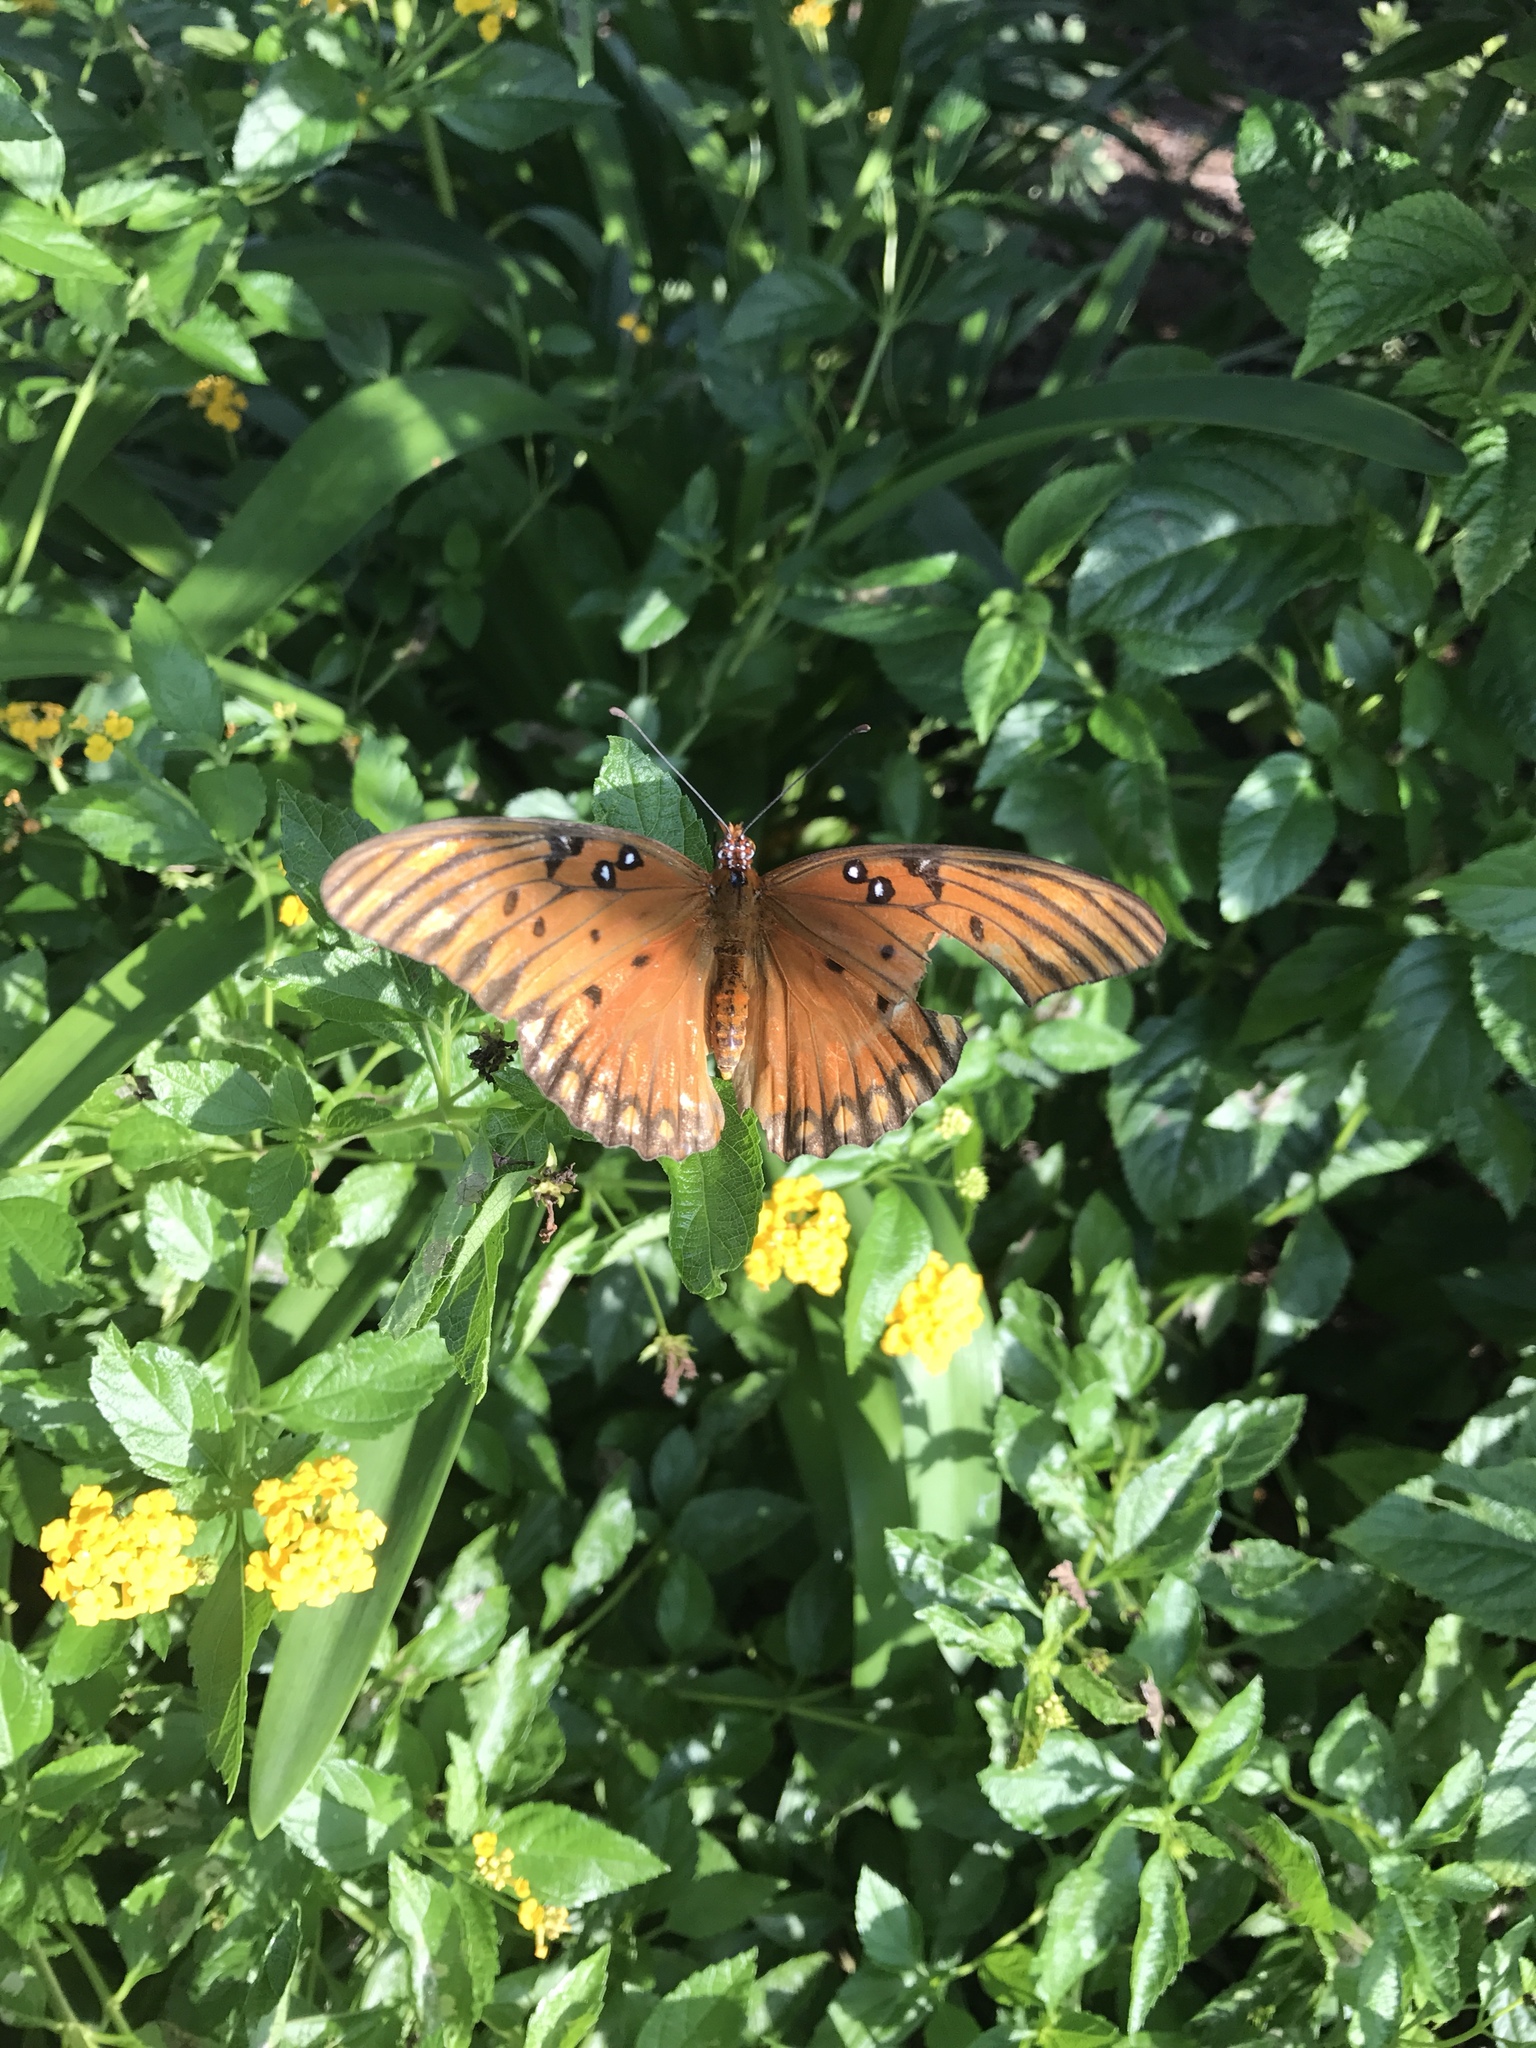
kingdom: Animalia
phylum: Arthropoda
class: Insecta
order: Lepidoptera
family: Nymphalidae
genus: Dione
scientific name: Dione vanillae
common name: Gulf fritillary
